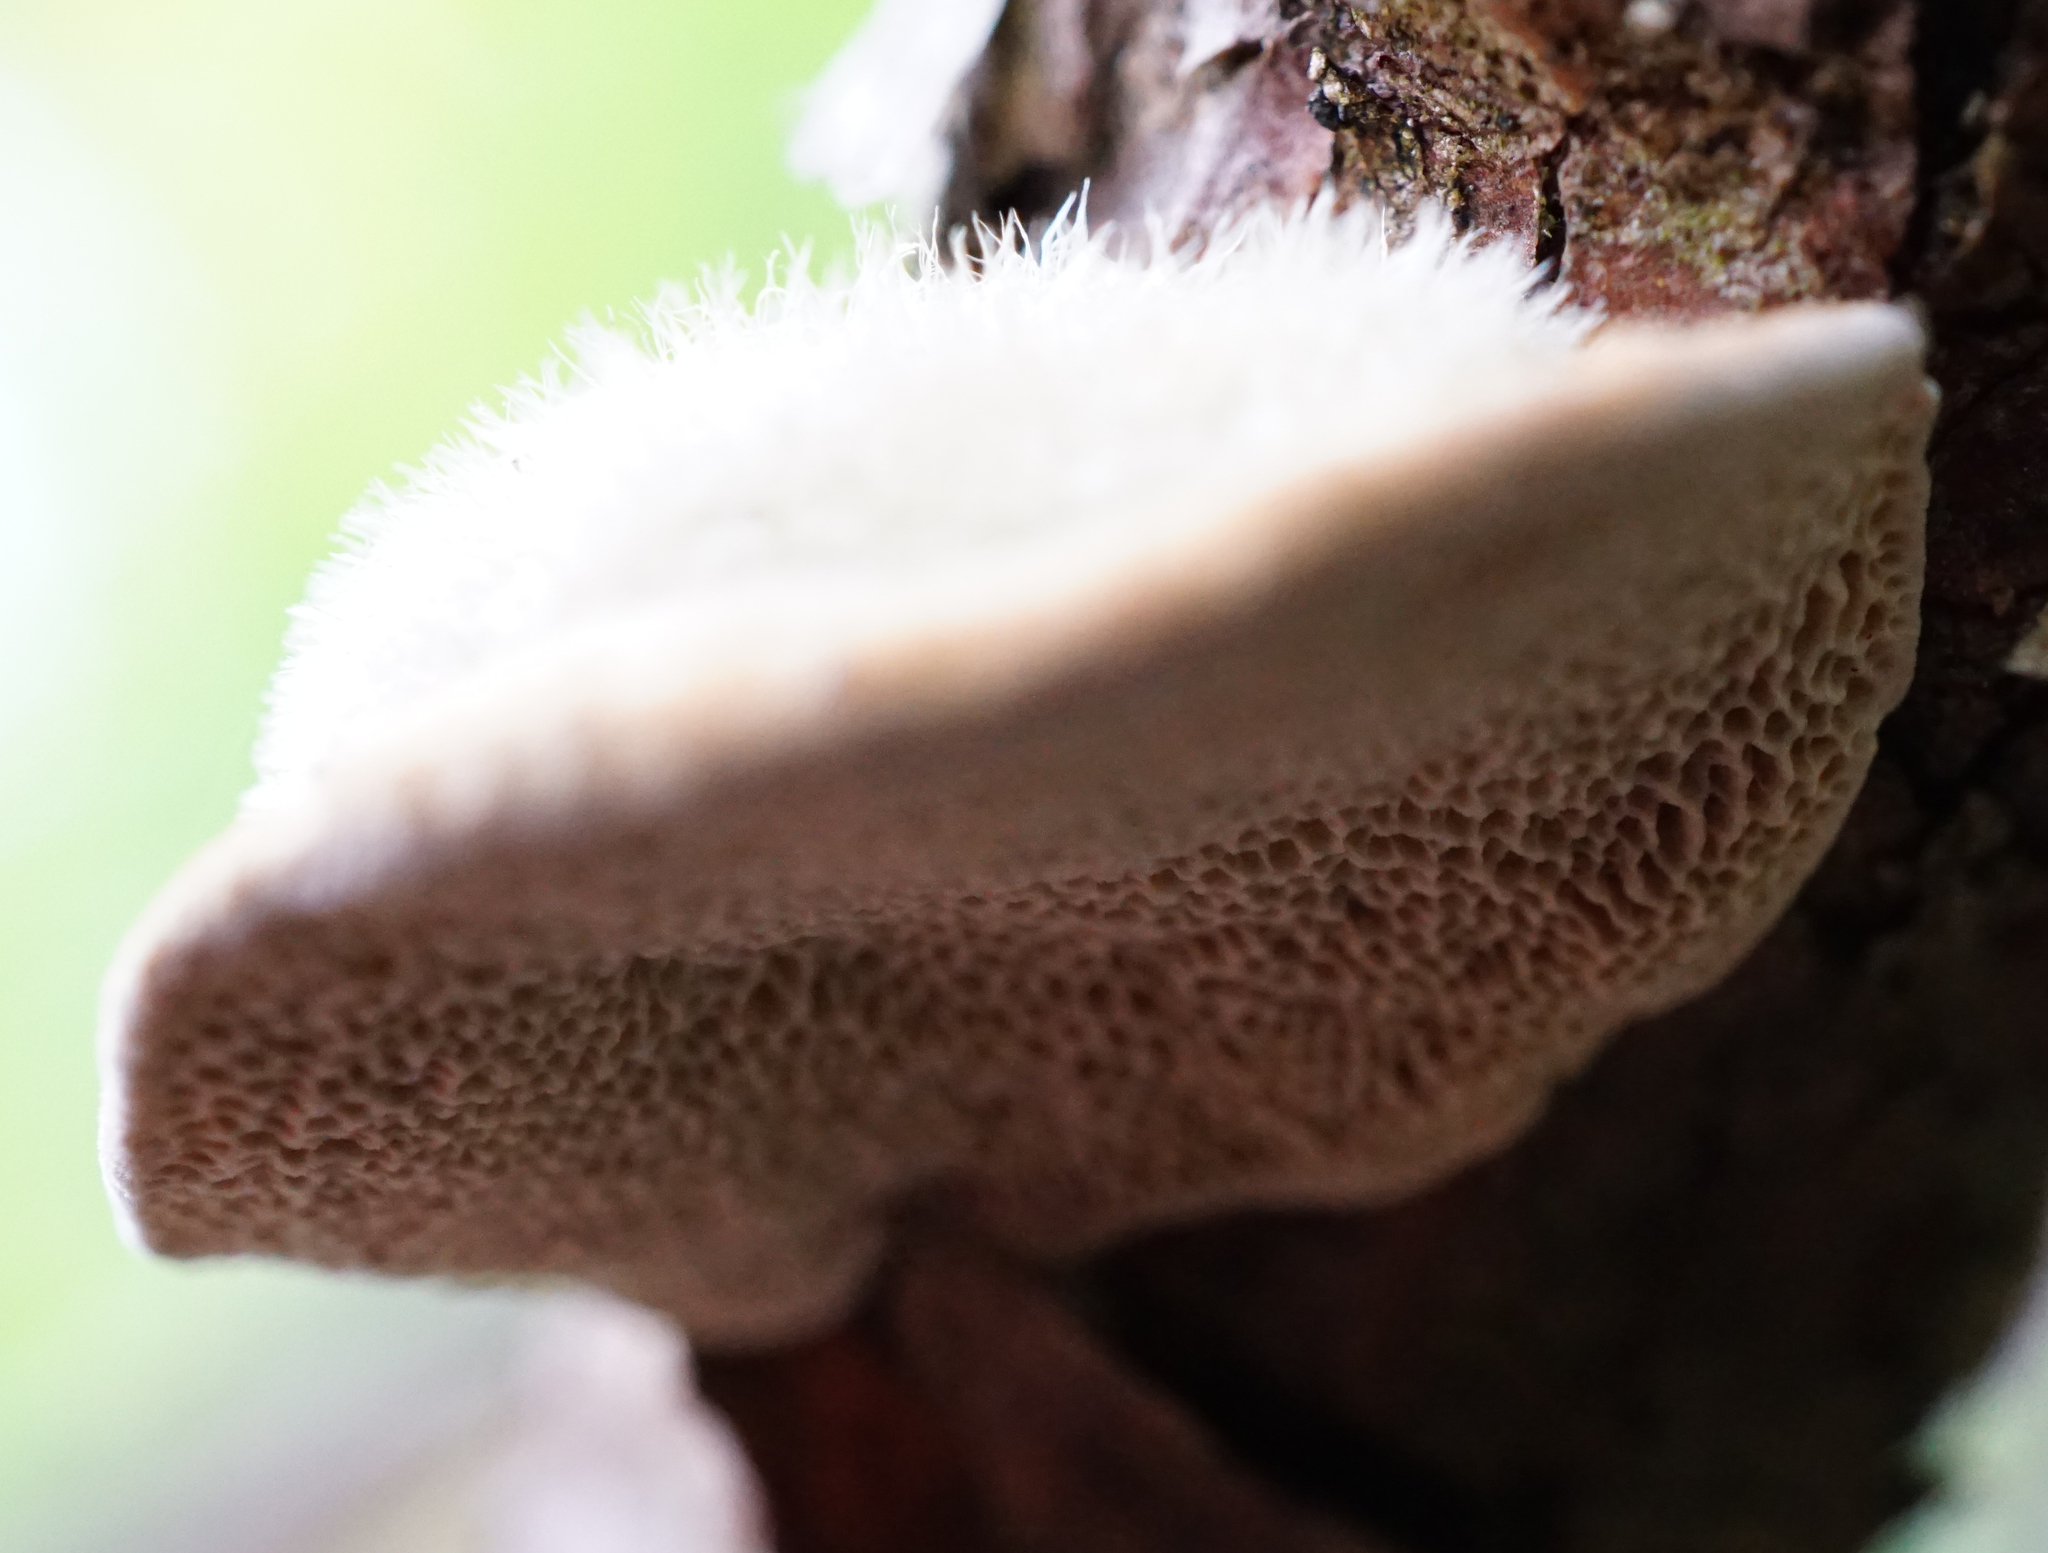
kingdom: Fungi
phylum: Basidiomycota
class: Agaricomycetes
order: Polyporales
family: Polyporaceae
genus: Trametes
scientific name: Trametes hirsuta
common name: Hairy bracket
